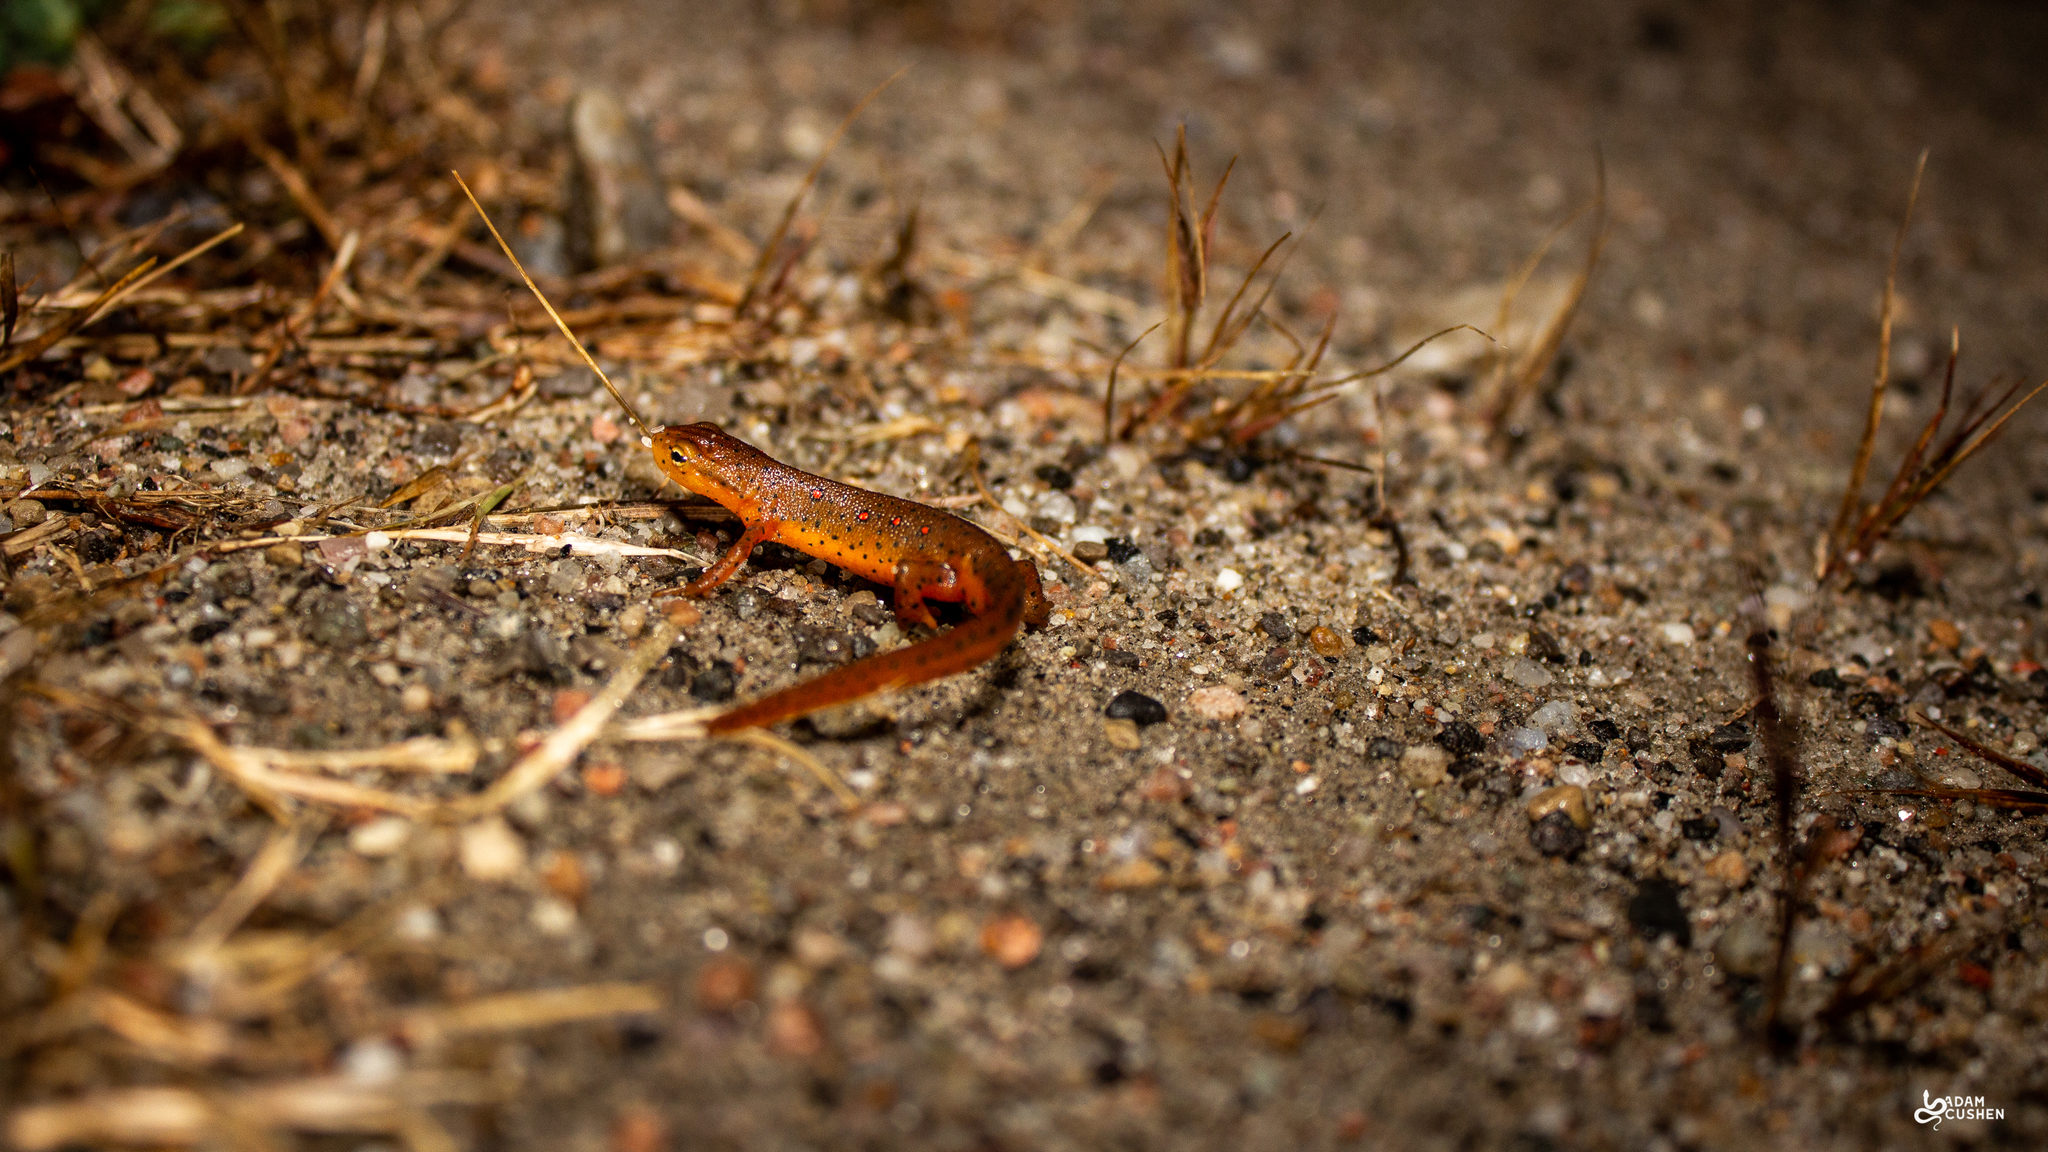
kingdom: Animalia
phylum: Chordata
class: Amphibia
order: Caudata
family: Salamandridae
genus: Notophthalmus
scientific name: Notophthalmus viridescens
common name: Eastern newt
